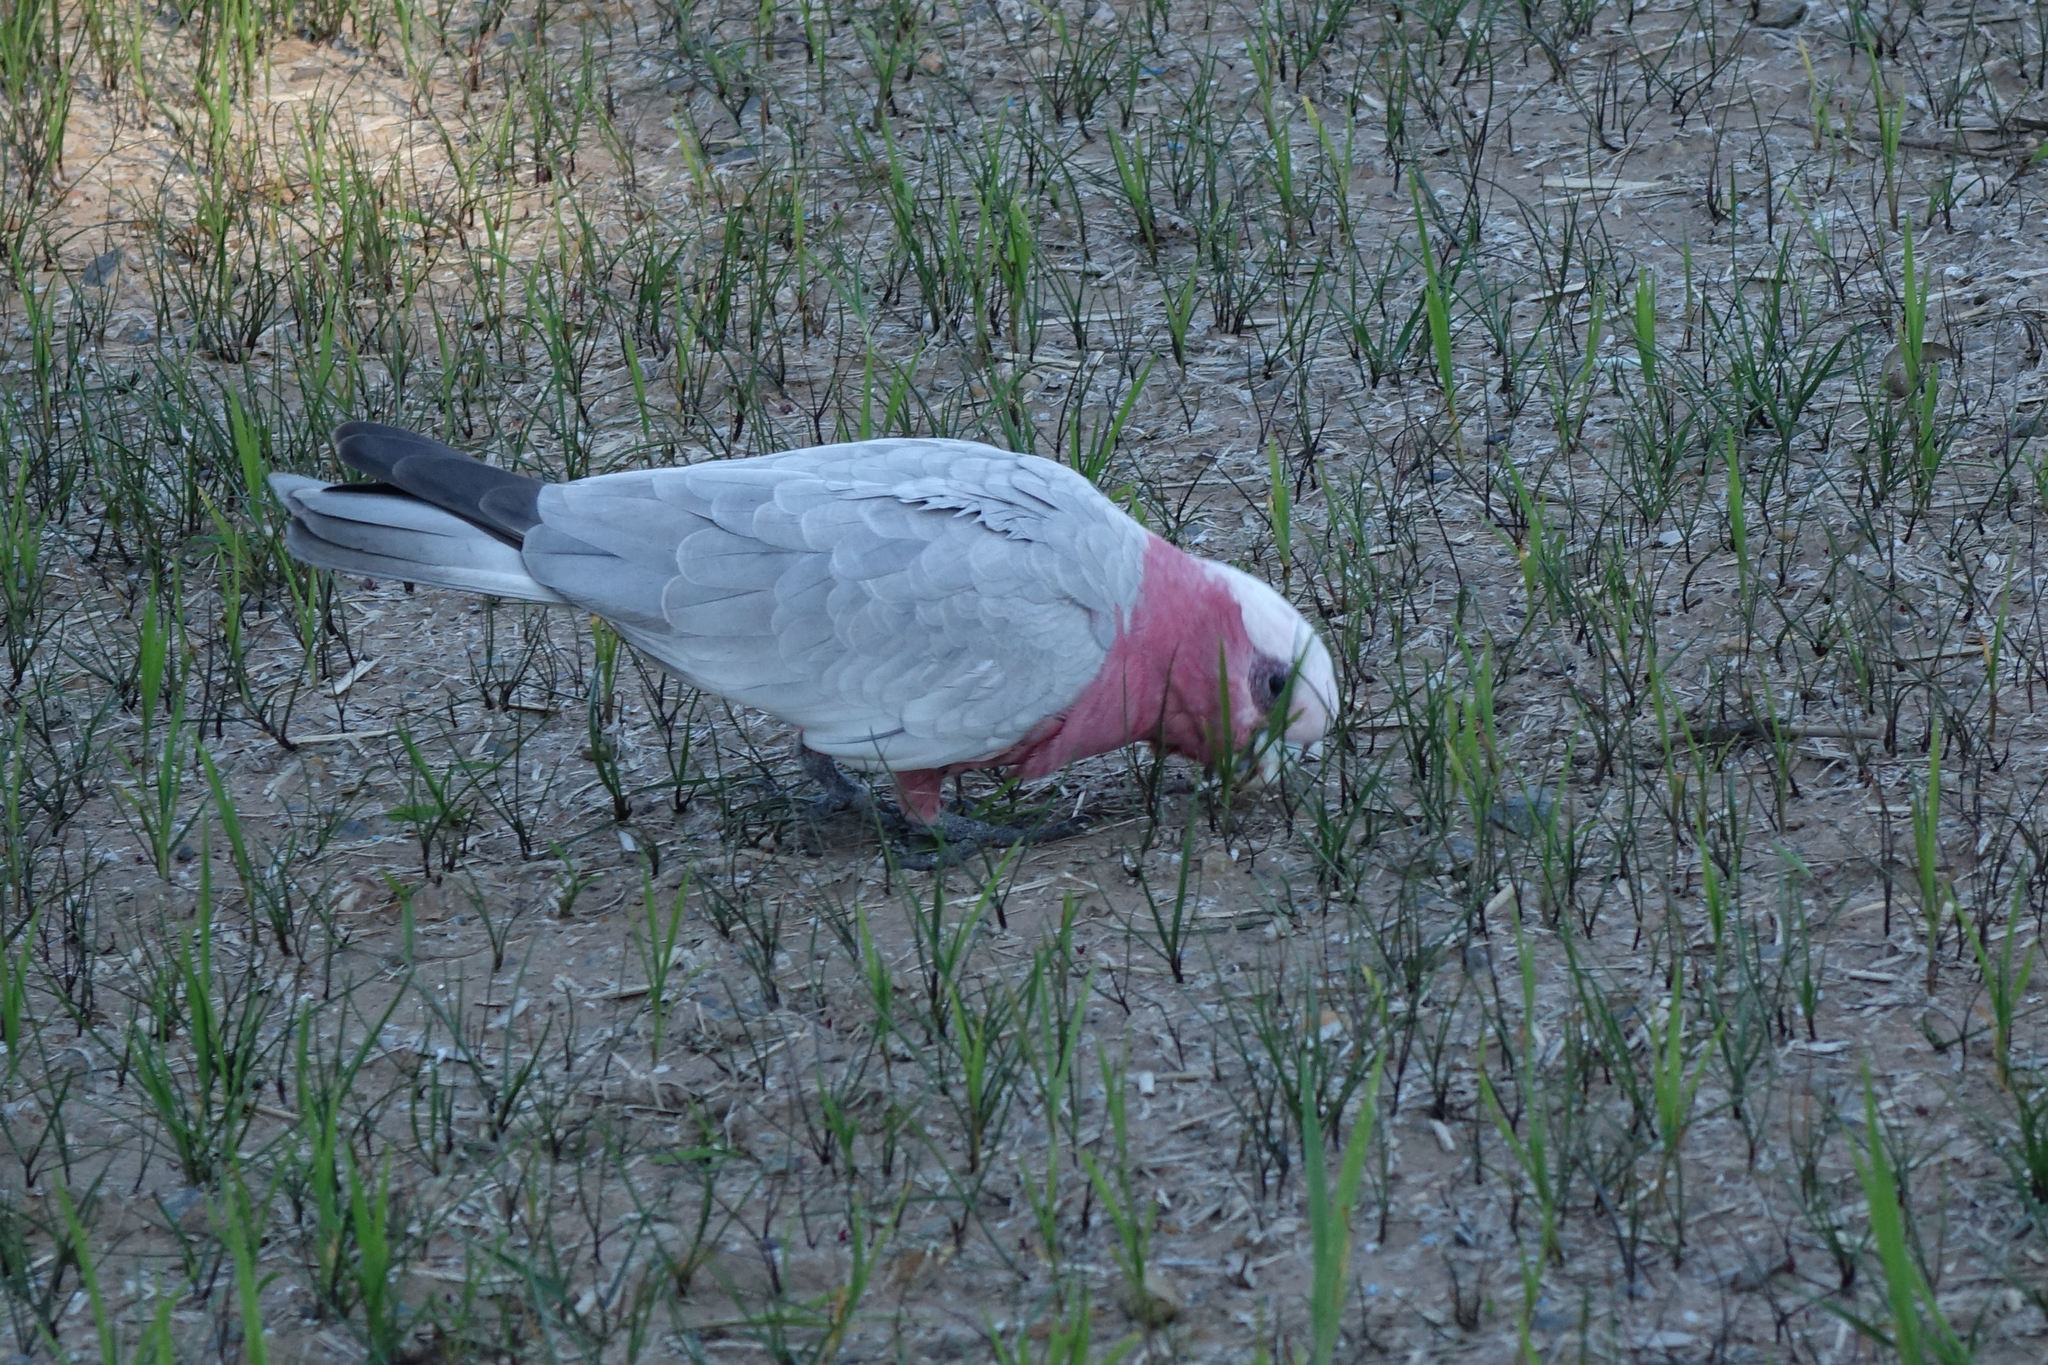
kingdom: Animalia
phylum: Chordata
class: Aves
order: Psittaciformes
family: Psittacidae
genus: Eolophus
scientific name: Eolophus roseicapilla
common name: Galah
